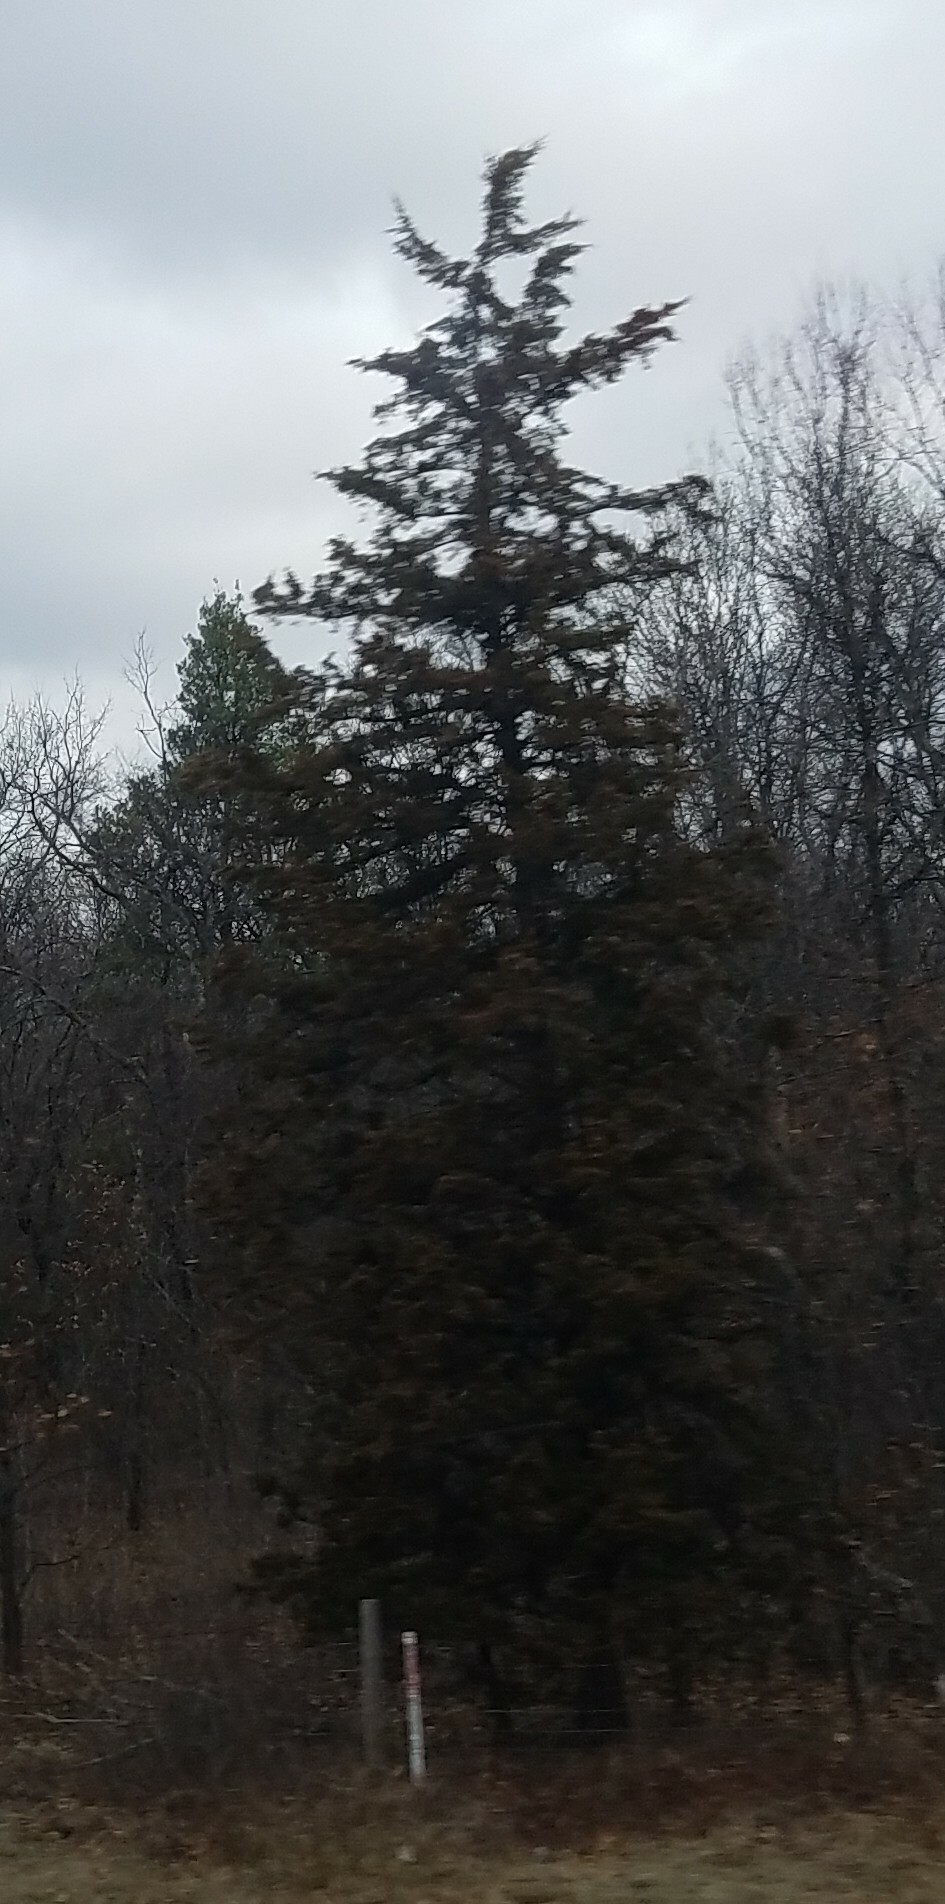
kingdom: Plantae
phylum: Tracheophyta
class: Pinopsida
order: Pinales
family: Cupressaceae
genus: Juniperus
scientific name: Juniperus virginiana
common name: Red juniper
